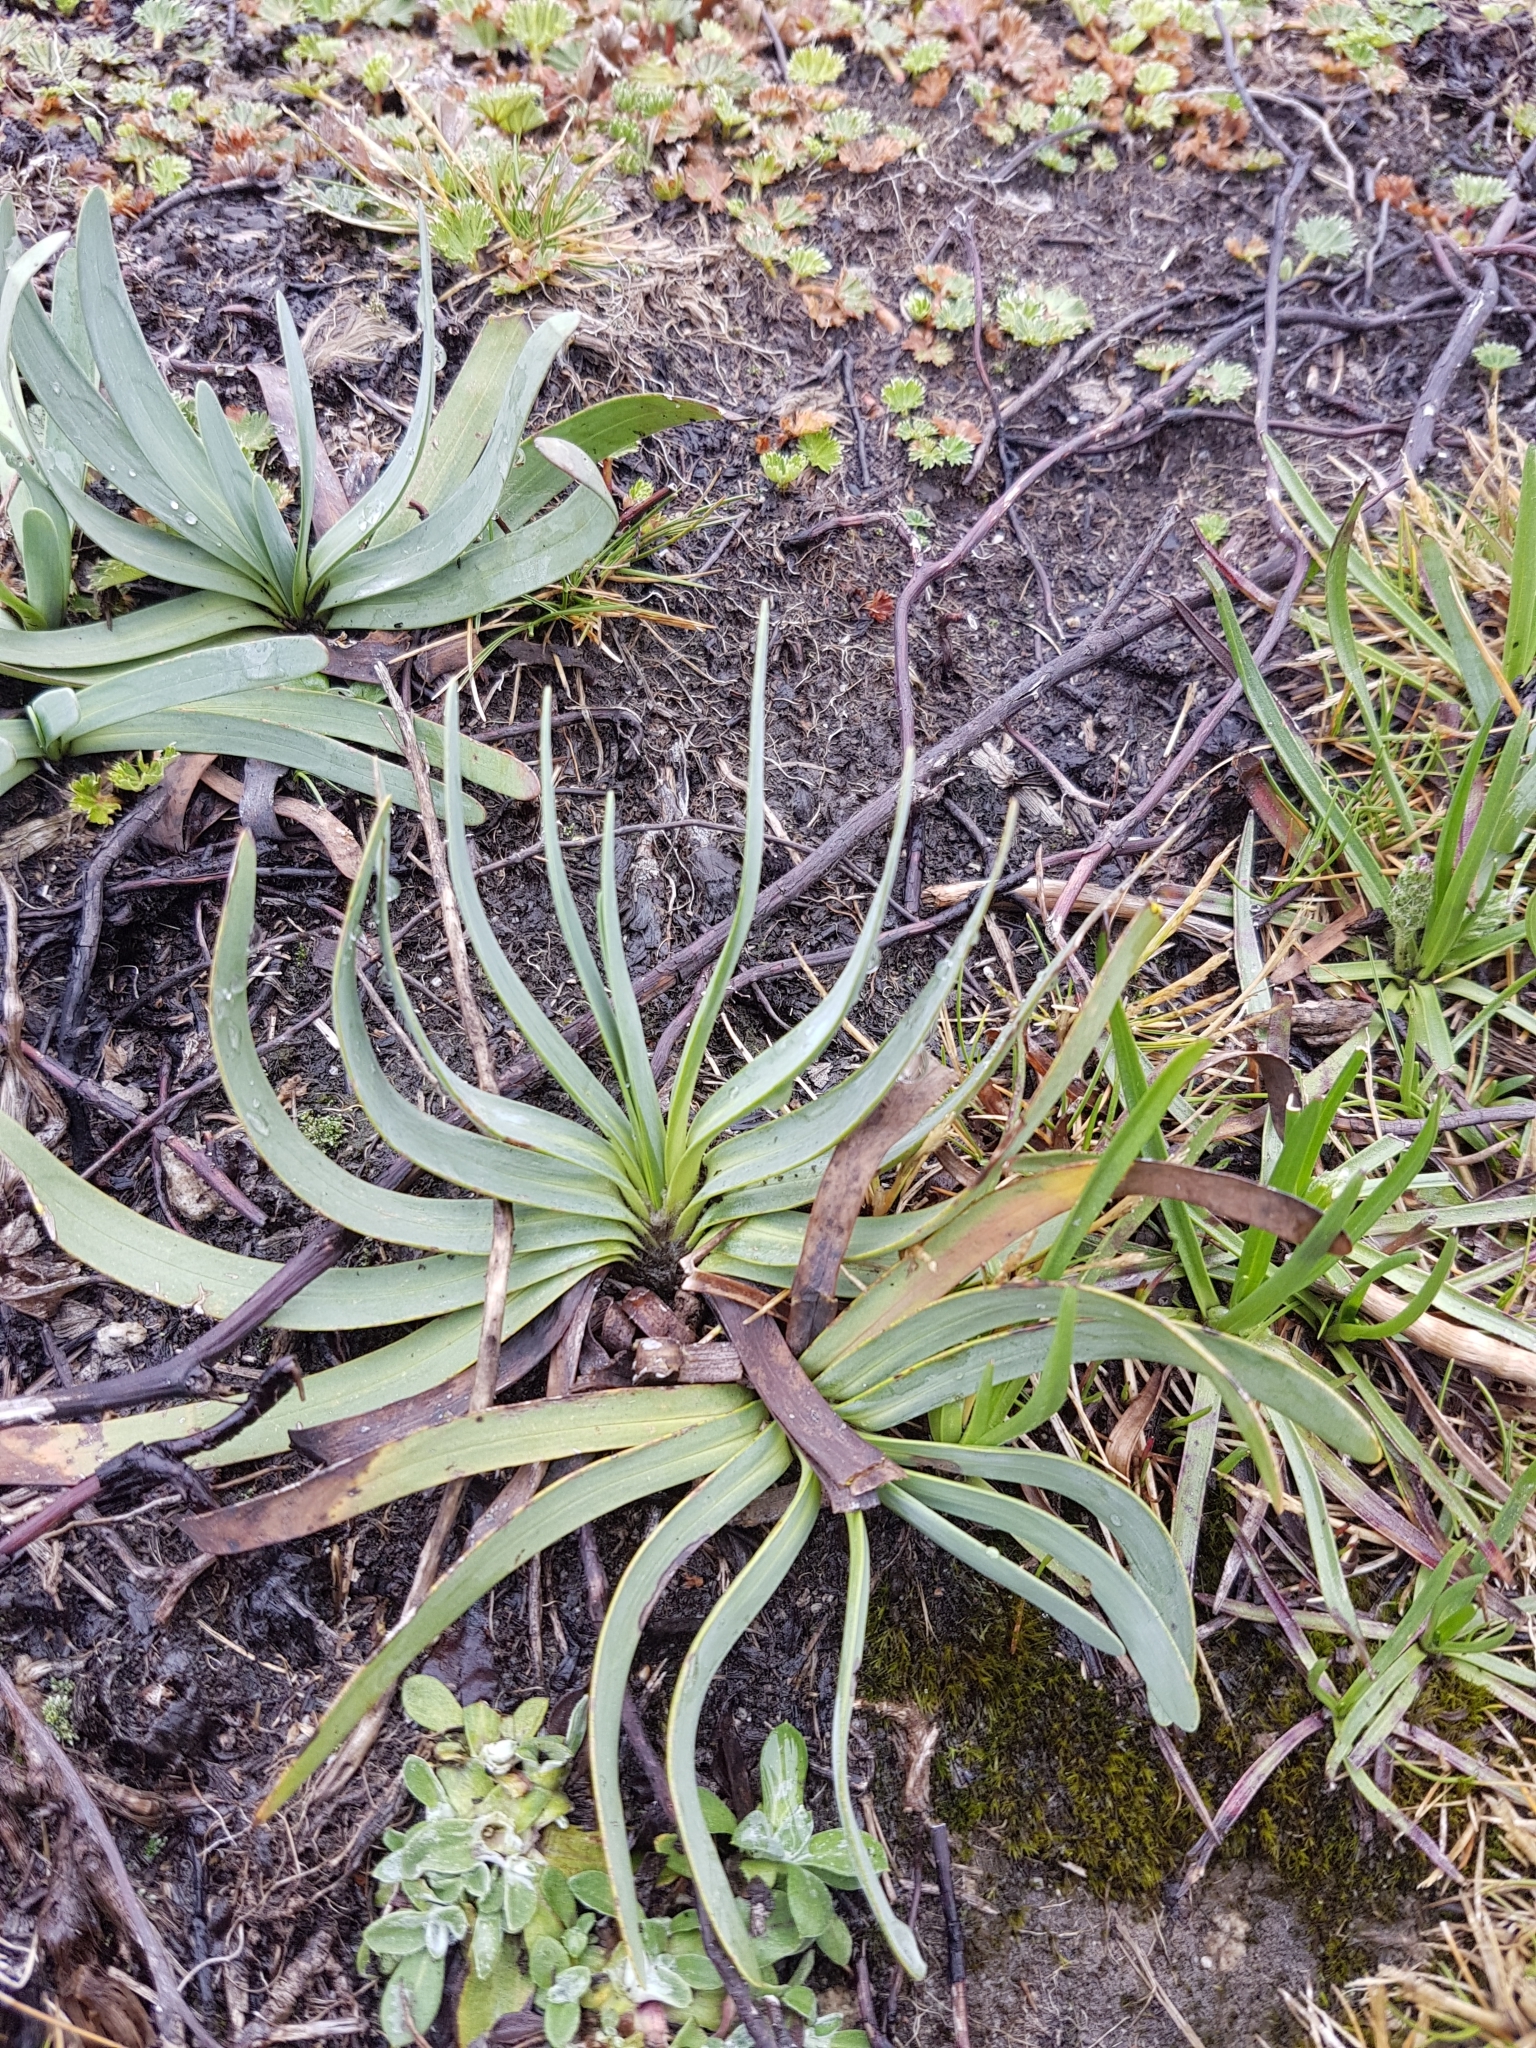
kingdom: Plantae
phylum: Tracheophyta
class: Magnoliopsida
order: Asterales
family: Asteraceae
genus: Rockhausenia
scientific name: Rockhausenia nubigena
